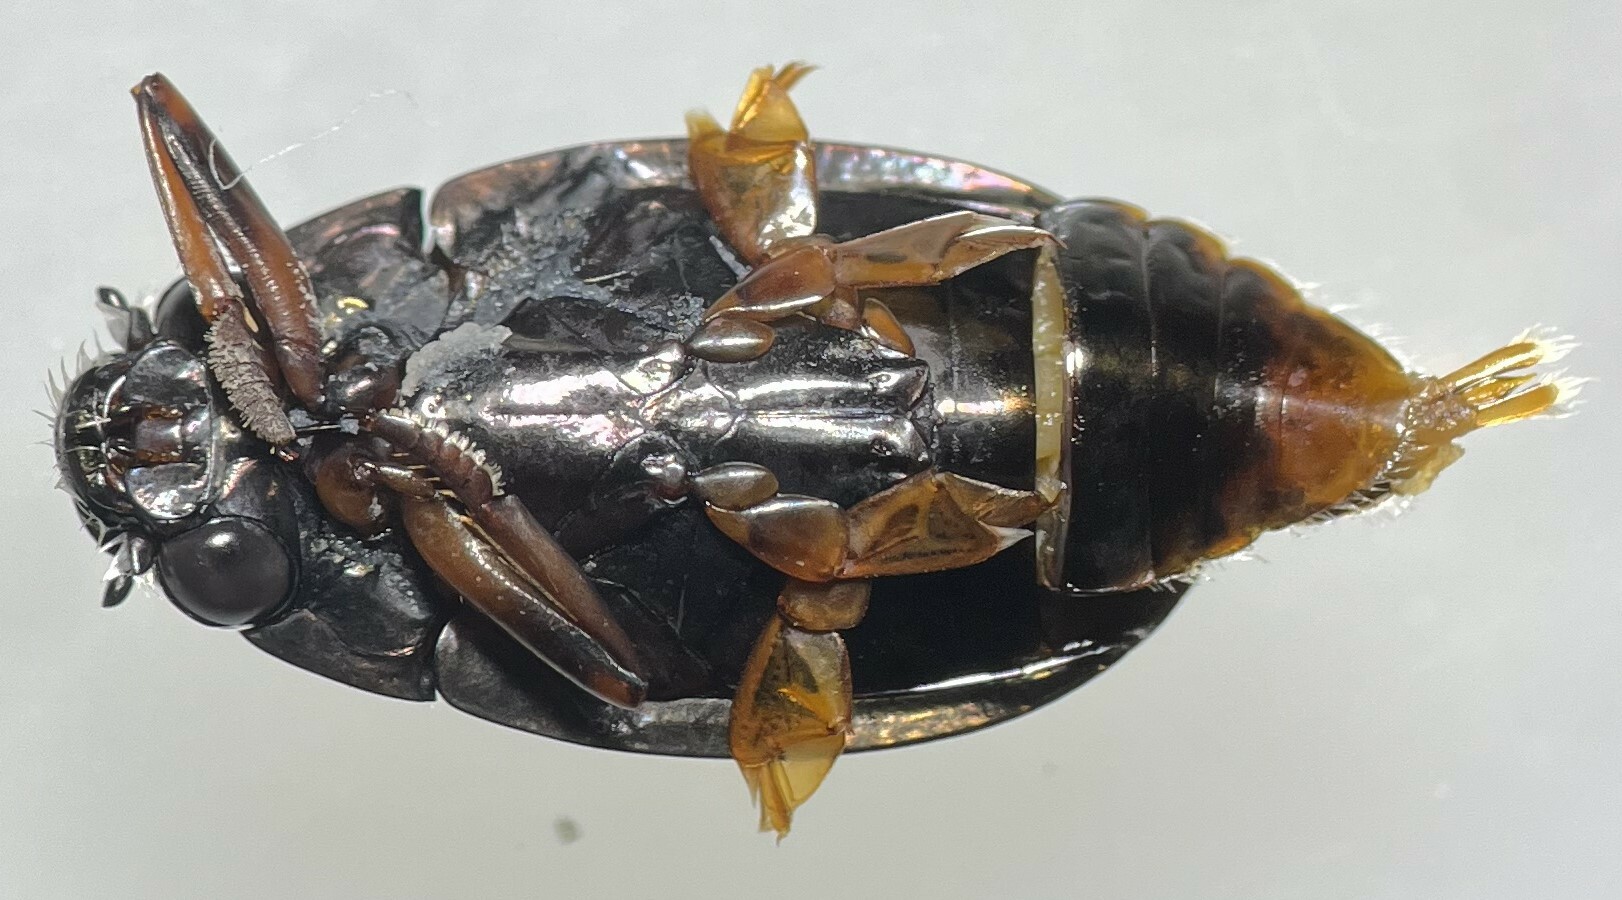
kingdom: Animalia
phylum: Arthropoda
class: Insecta
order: Coleoptera
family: Gyrinidae
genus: Dineutus
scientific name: Dineutus assimilis
